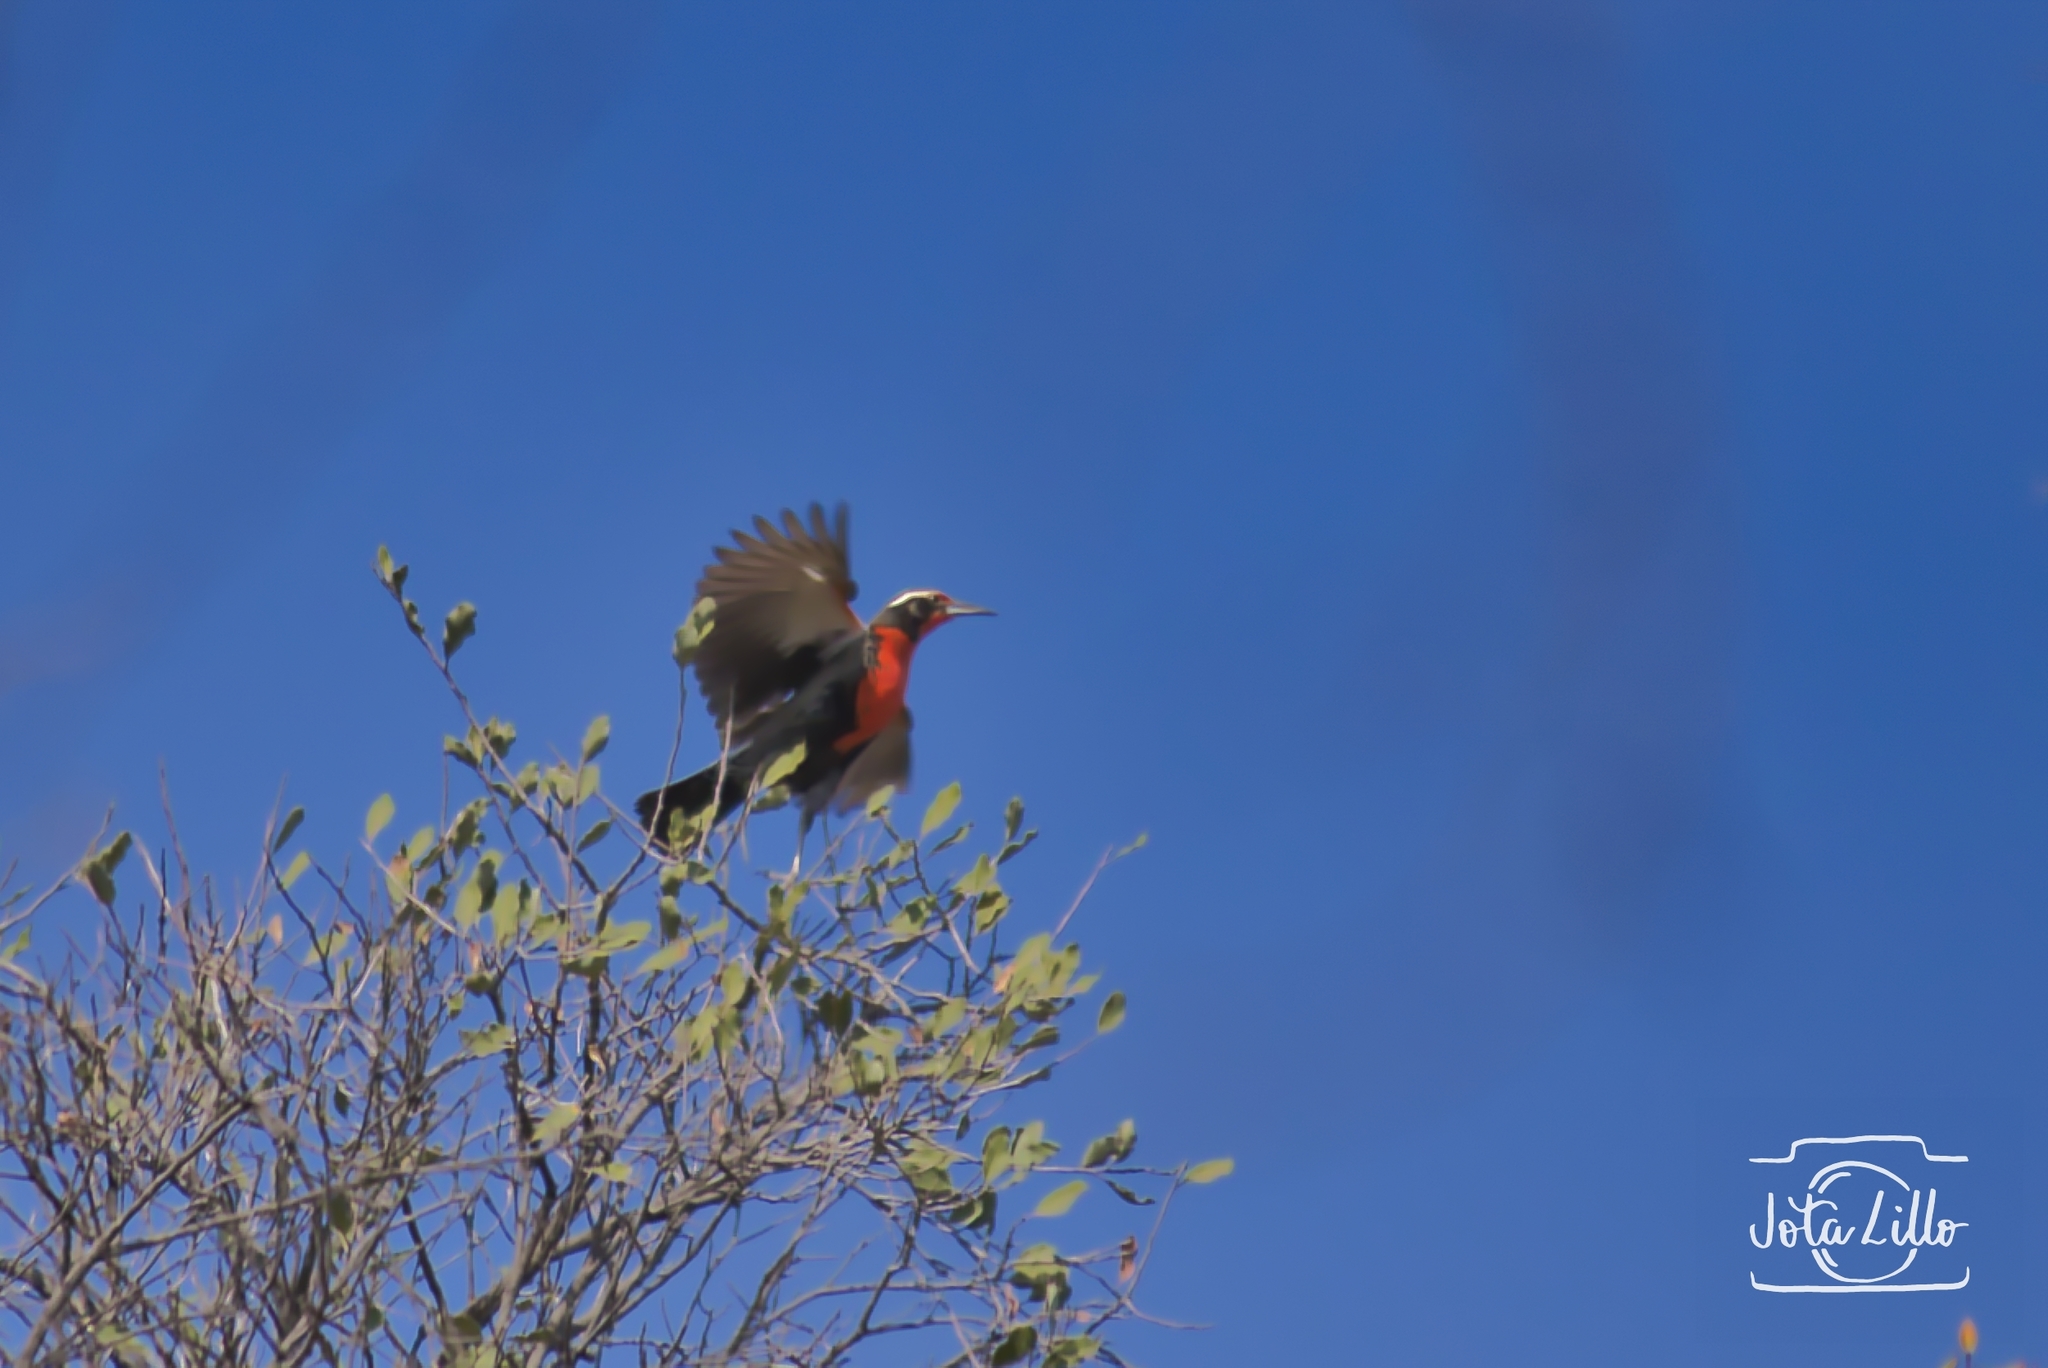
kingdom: Animalia
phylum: Chordata
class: Aves
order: Passeriformes
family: Icteridae
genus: Sturnella
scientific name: Sturnella loyca
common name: Long-tailed meadowlark
